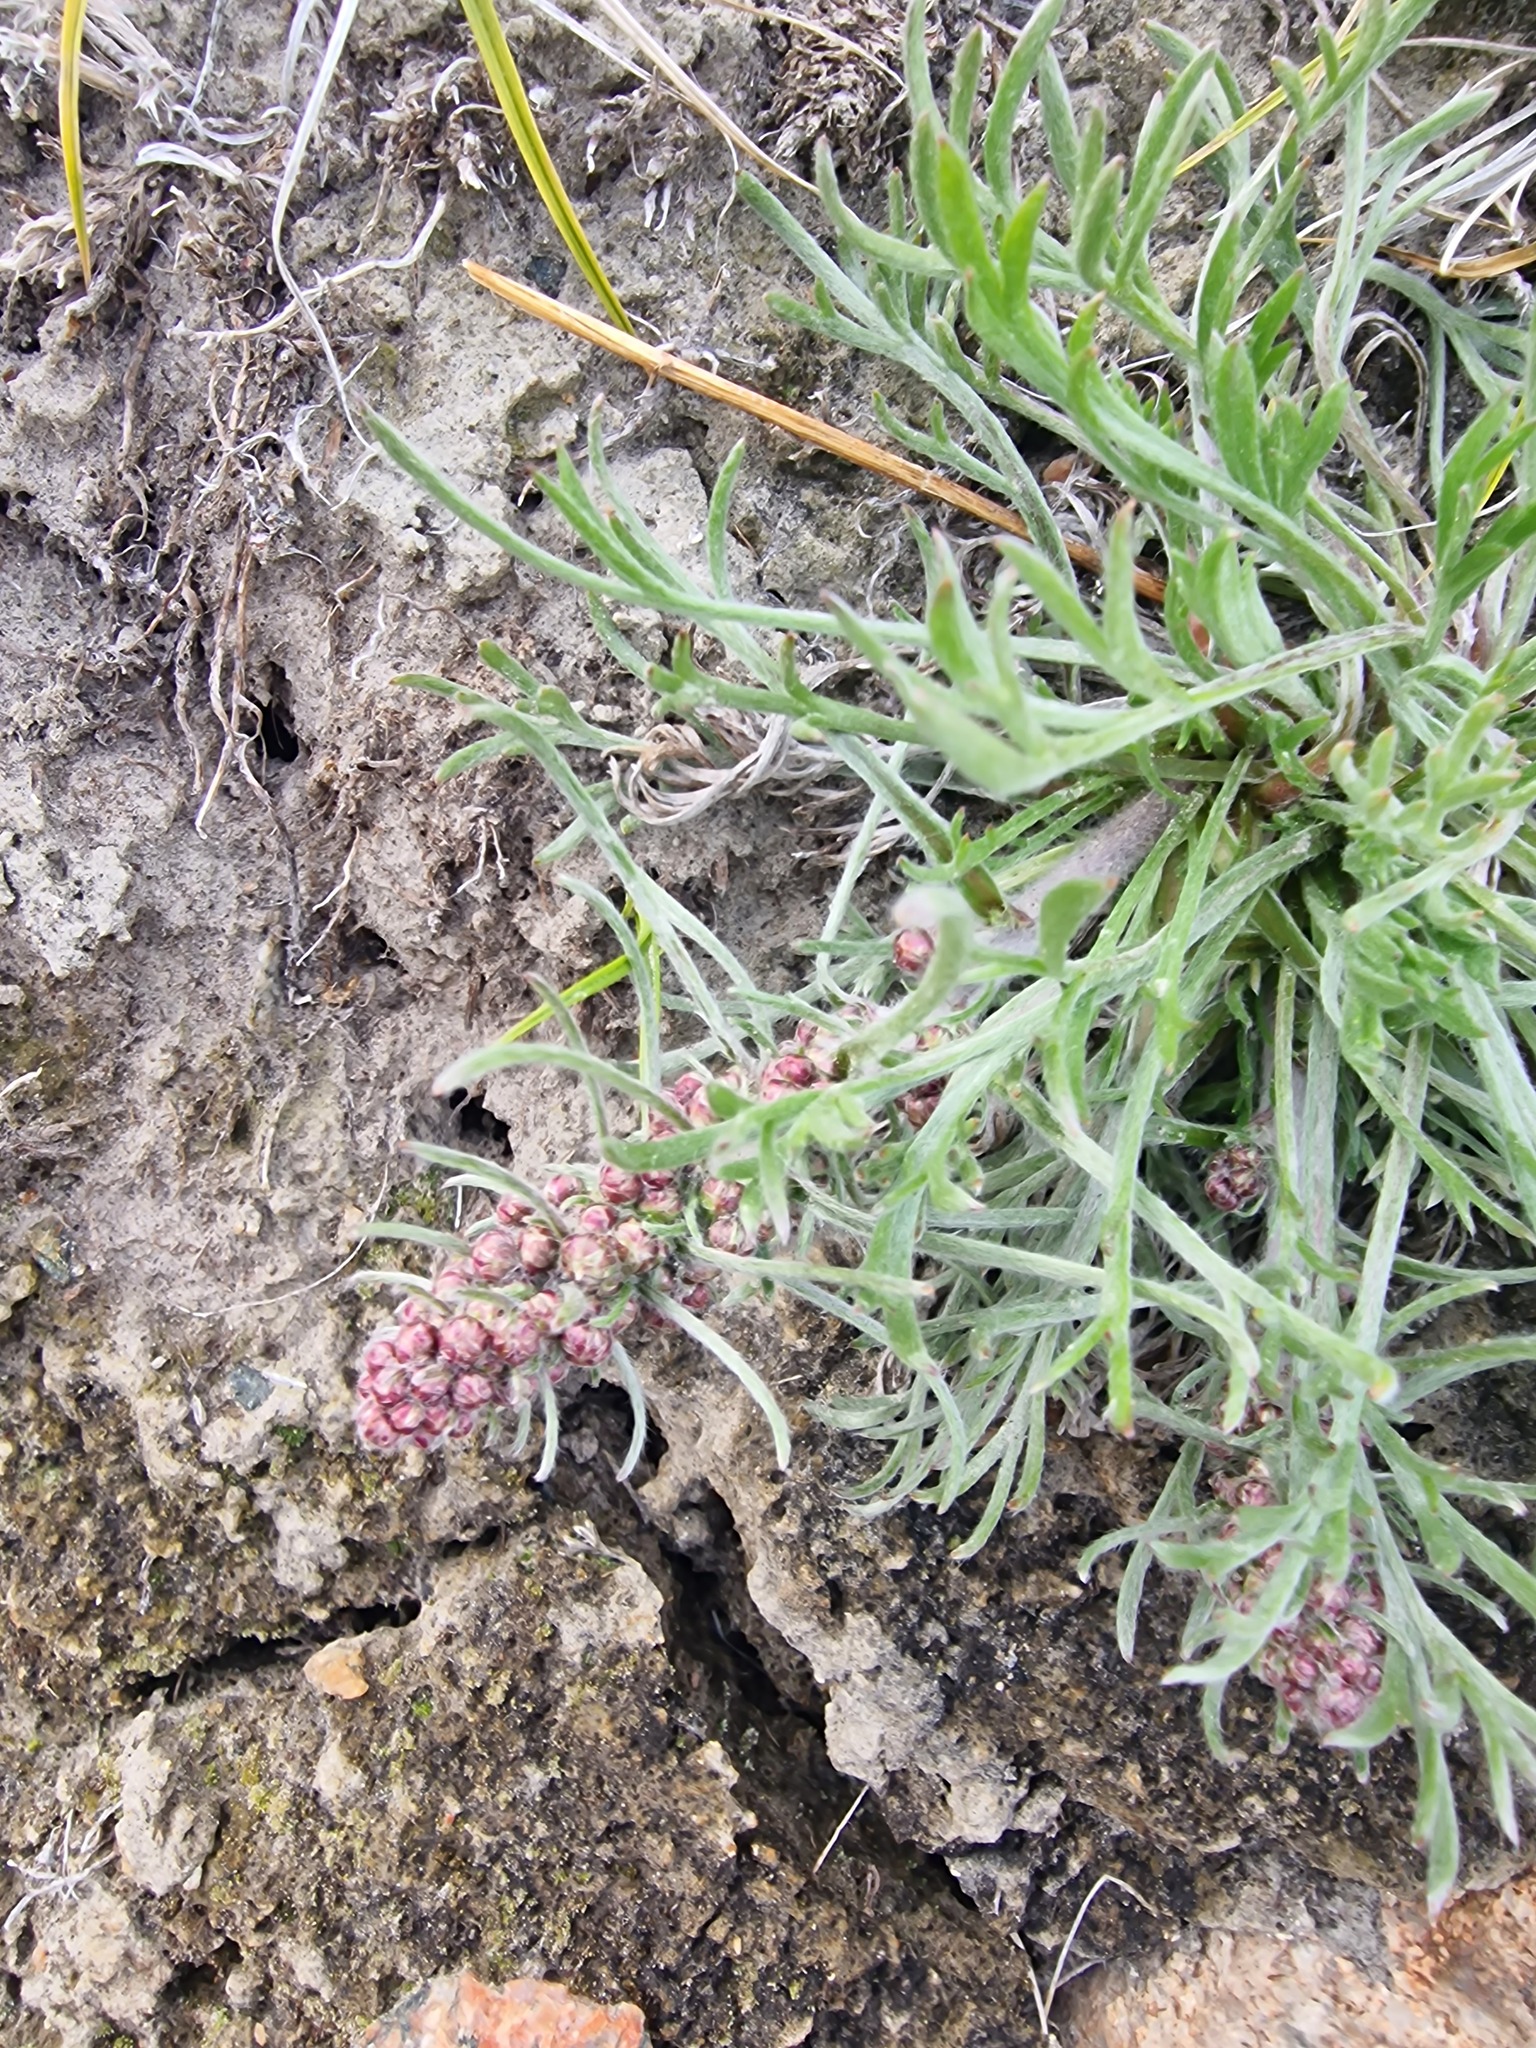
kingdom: Plantae
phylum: Tracheophyta
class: Magnoliopsida
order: Asterales
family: Asteraceae
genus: Artemisia
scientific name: Artemisia borealis
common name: Boreal sage
